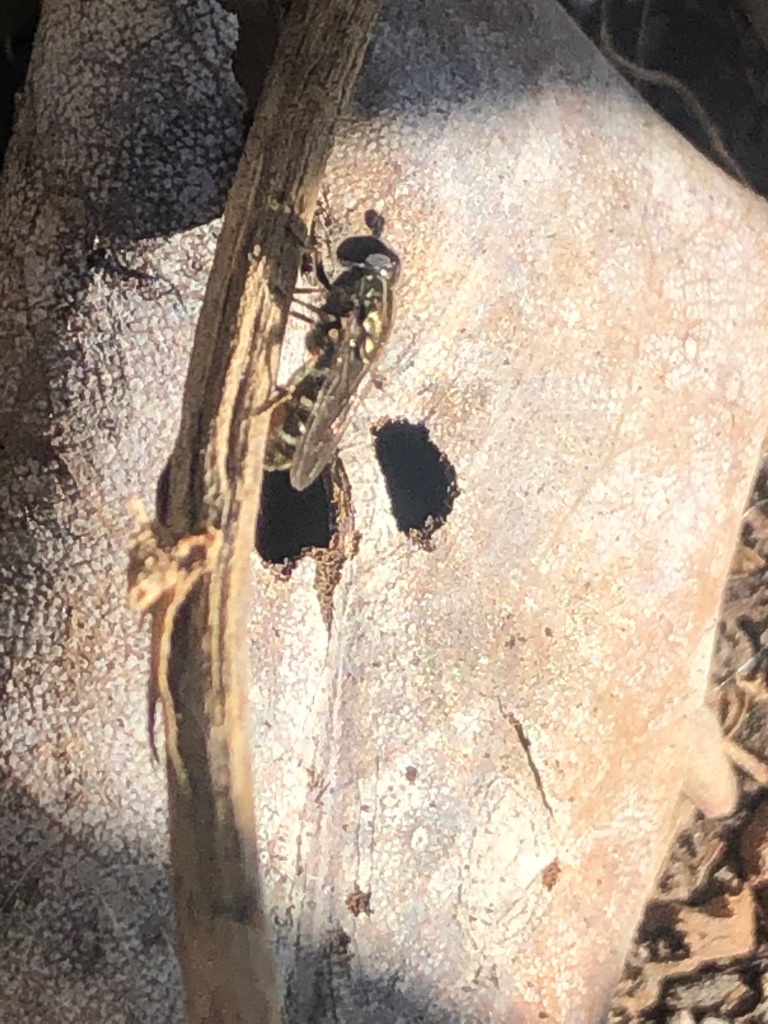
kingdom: Animalia
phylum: Arthropoda
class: Insecta
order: Diptera
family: Syrphidae
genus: Eumerus
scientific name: Eumerus
